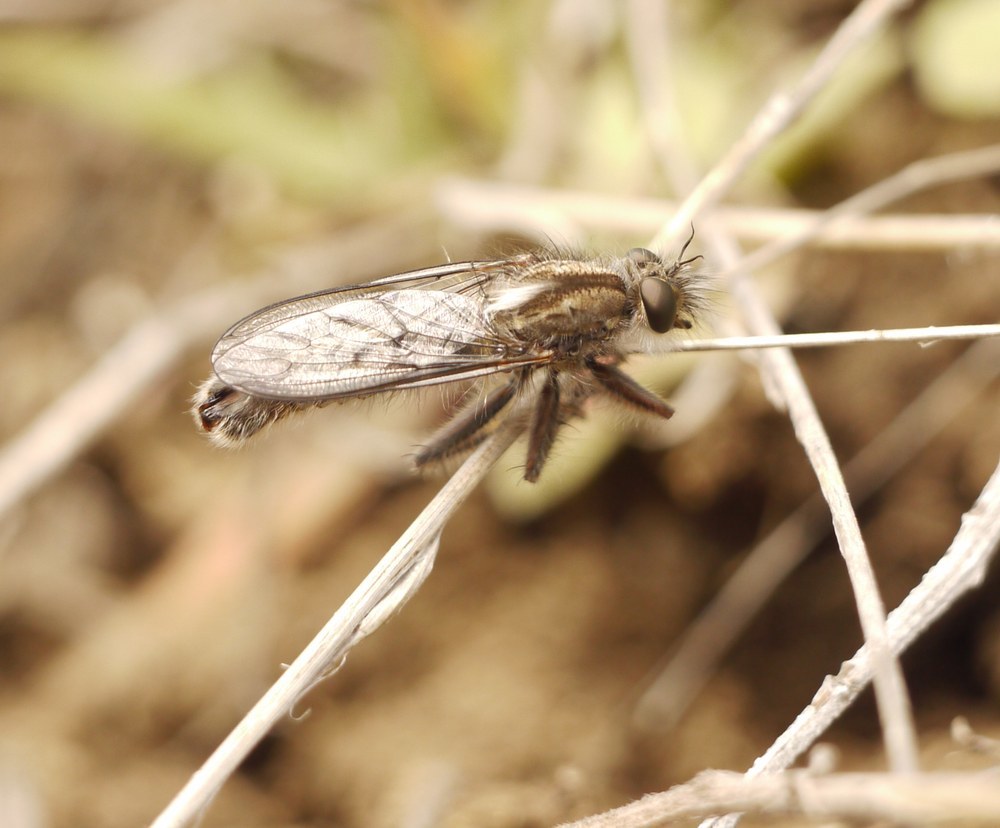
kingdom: Animalia
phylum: Arthropoda
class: Insecta
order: Diptera
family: Asilidae
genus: Erax
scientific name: Erax crassicauda
